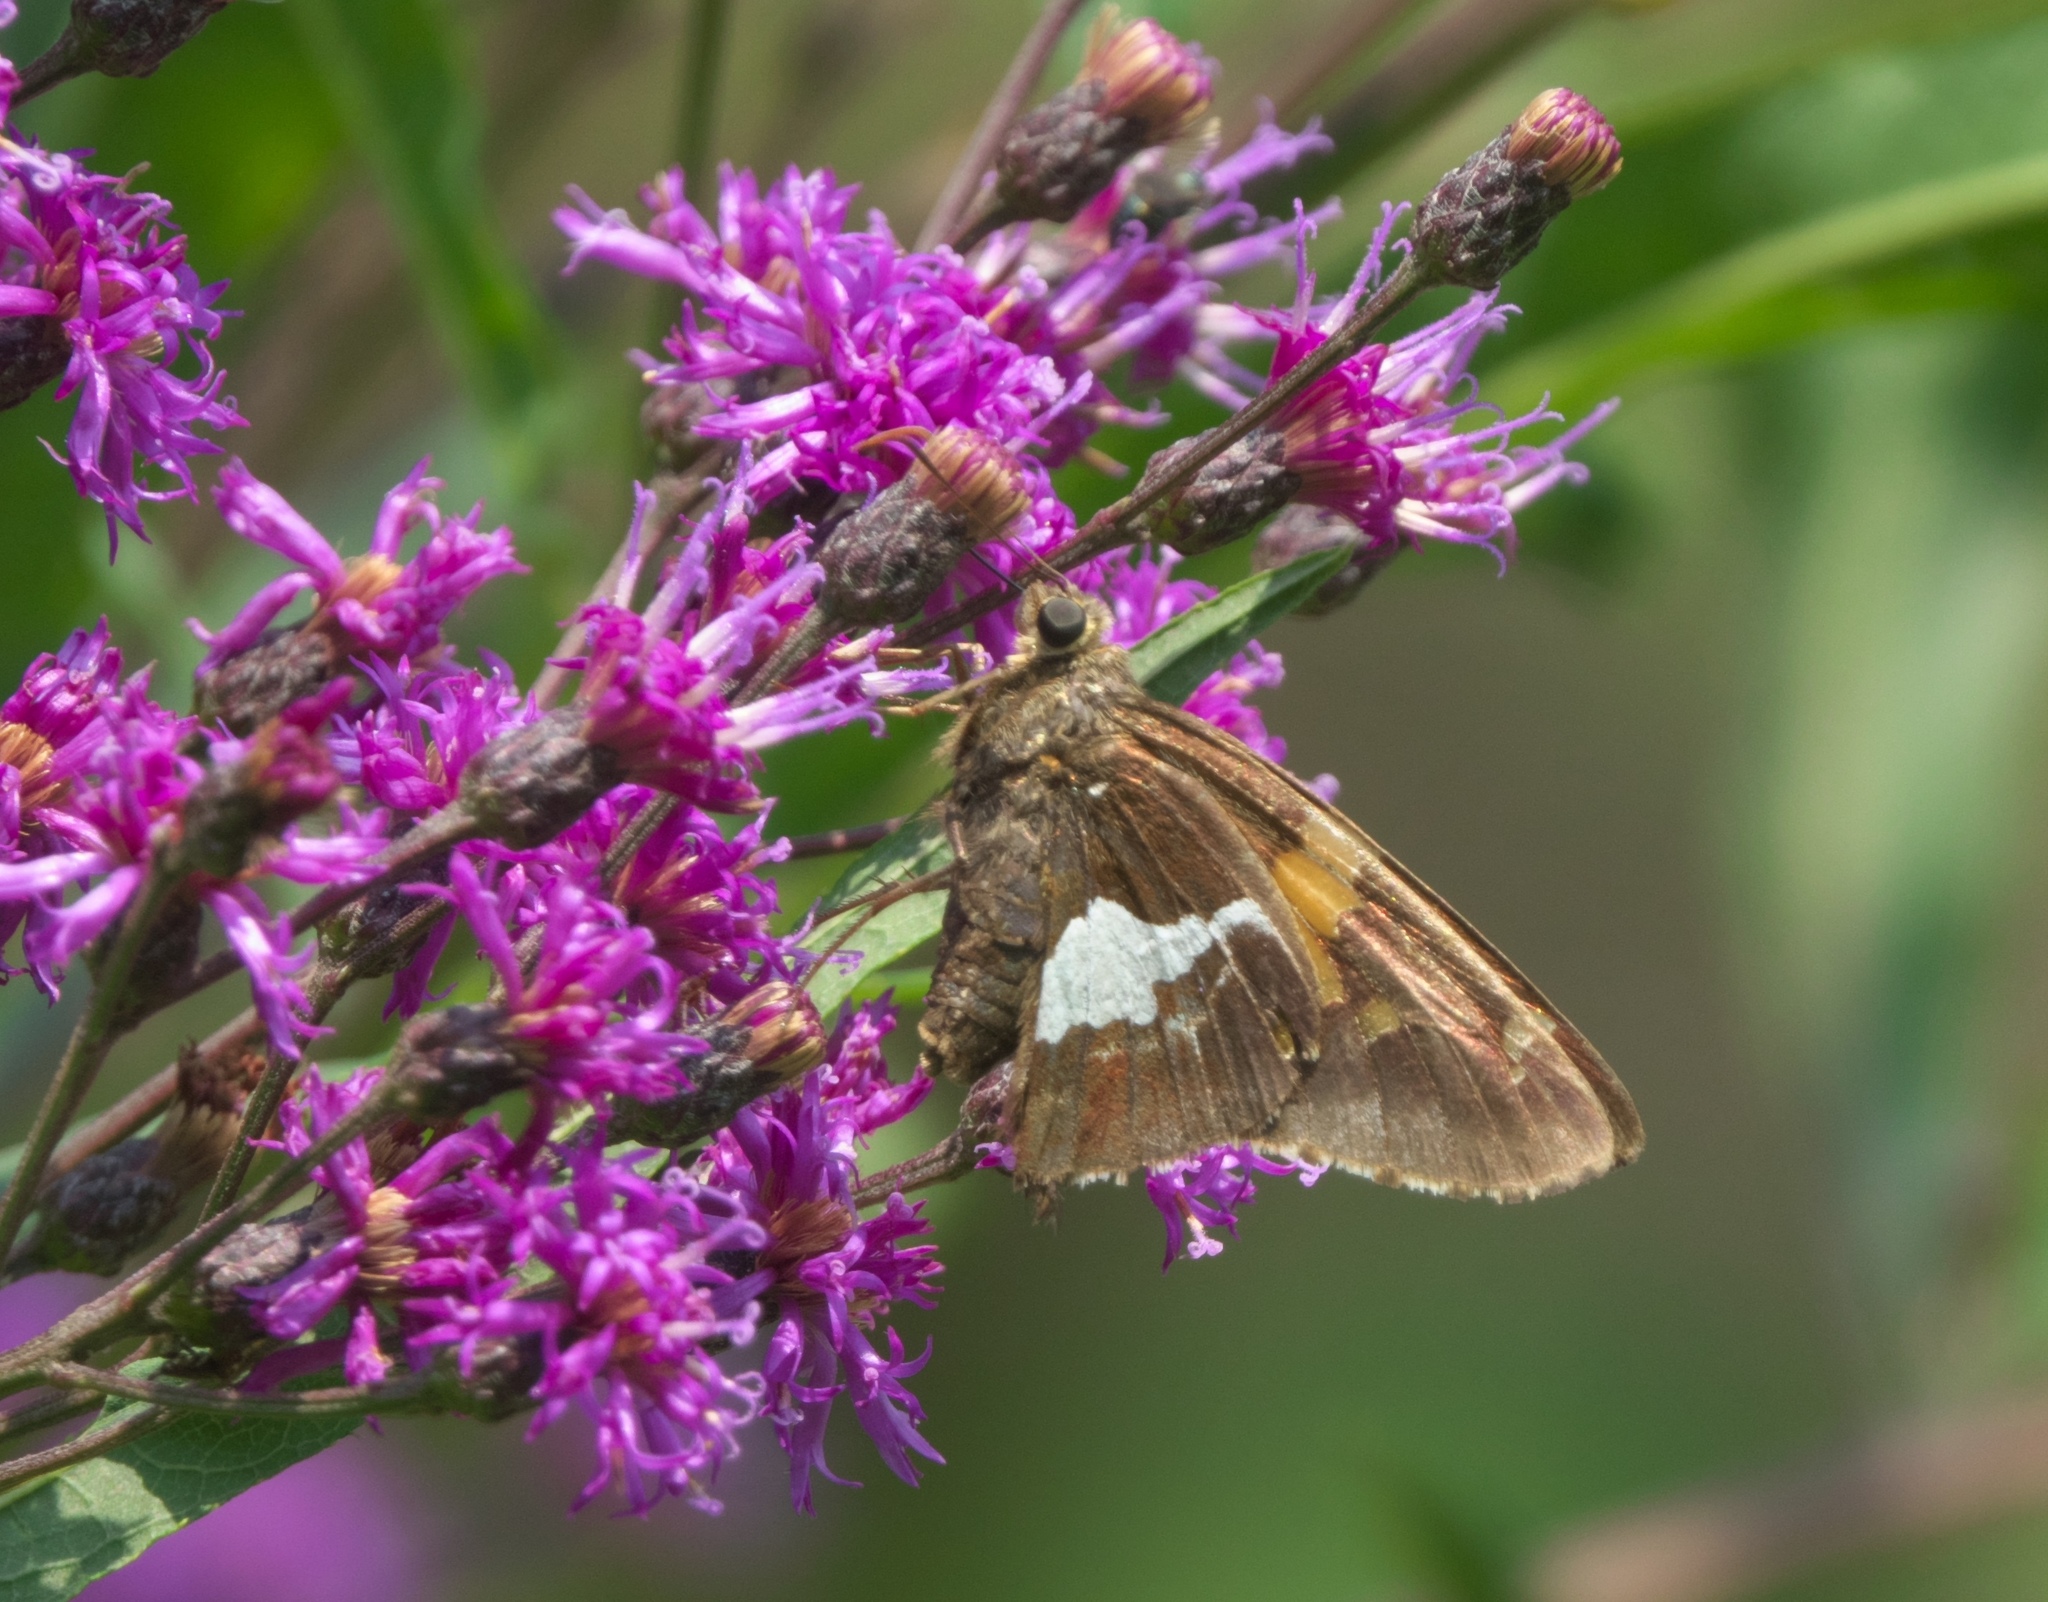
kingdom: Animalia
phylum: Arthropoda
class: Insecta
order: Lepidoptera
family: Hesperiidae
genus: Epargyreus
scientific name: Epargyreus clarus
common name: Silver-spotted skipper
